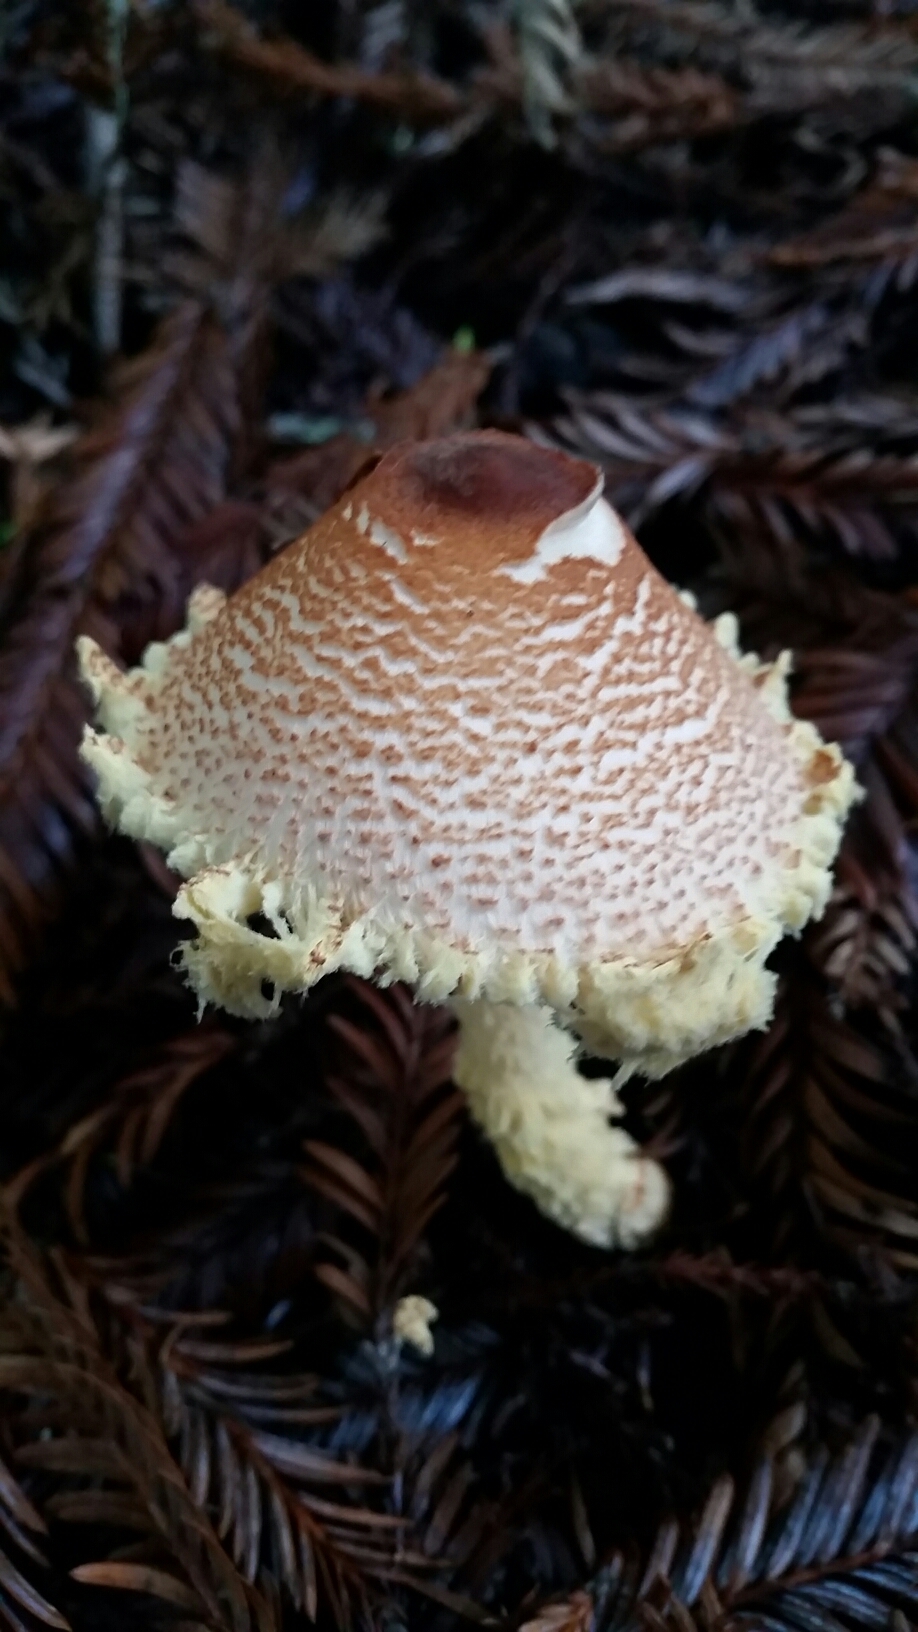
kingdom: Fungi
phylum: Basidiomycota
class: Agaricomycetes
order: Agaricales
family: Agaricaceae
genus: Lepiota
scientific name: Lepiota magnispora
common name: Yellowfoot dapperling
